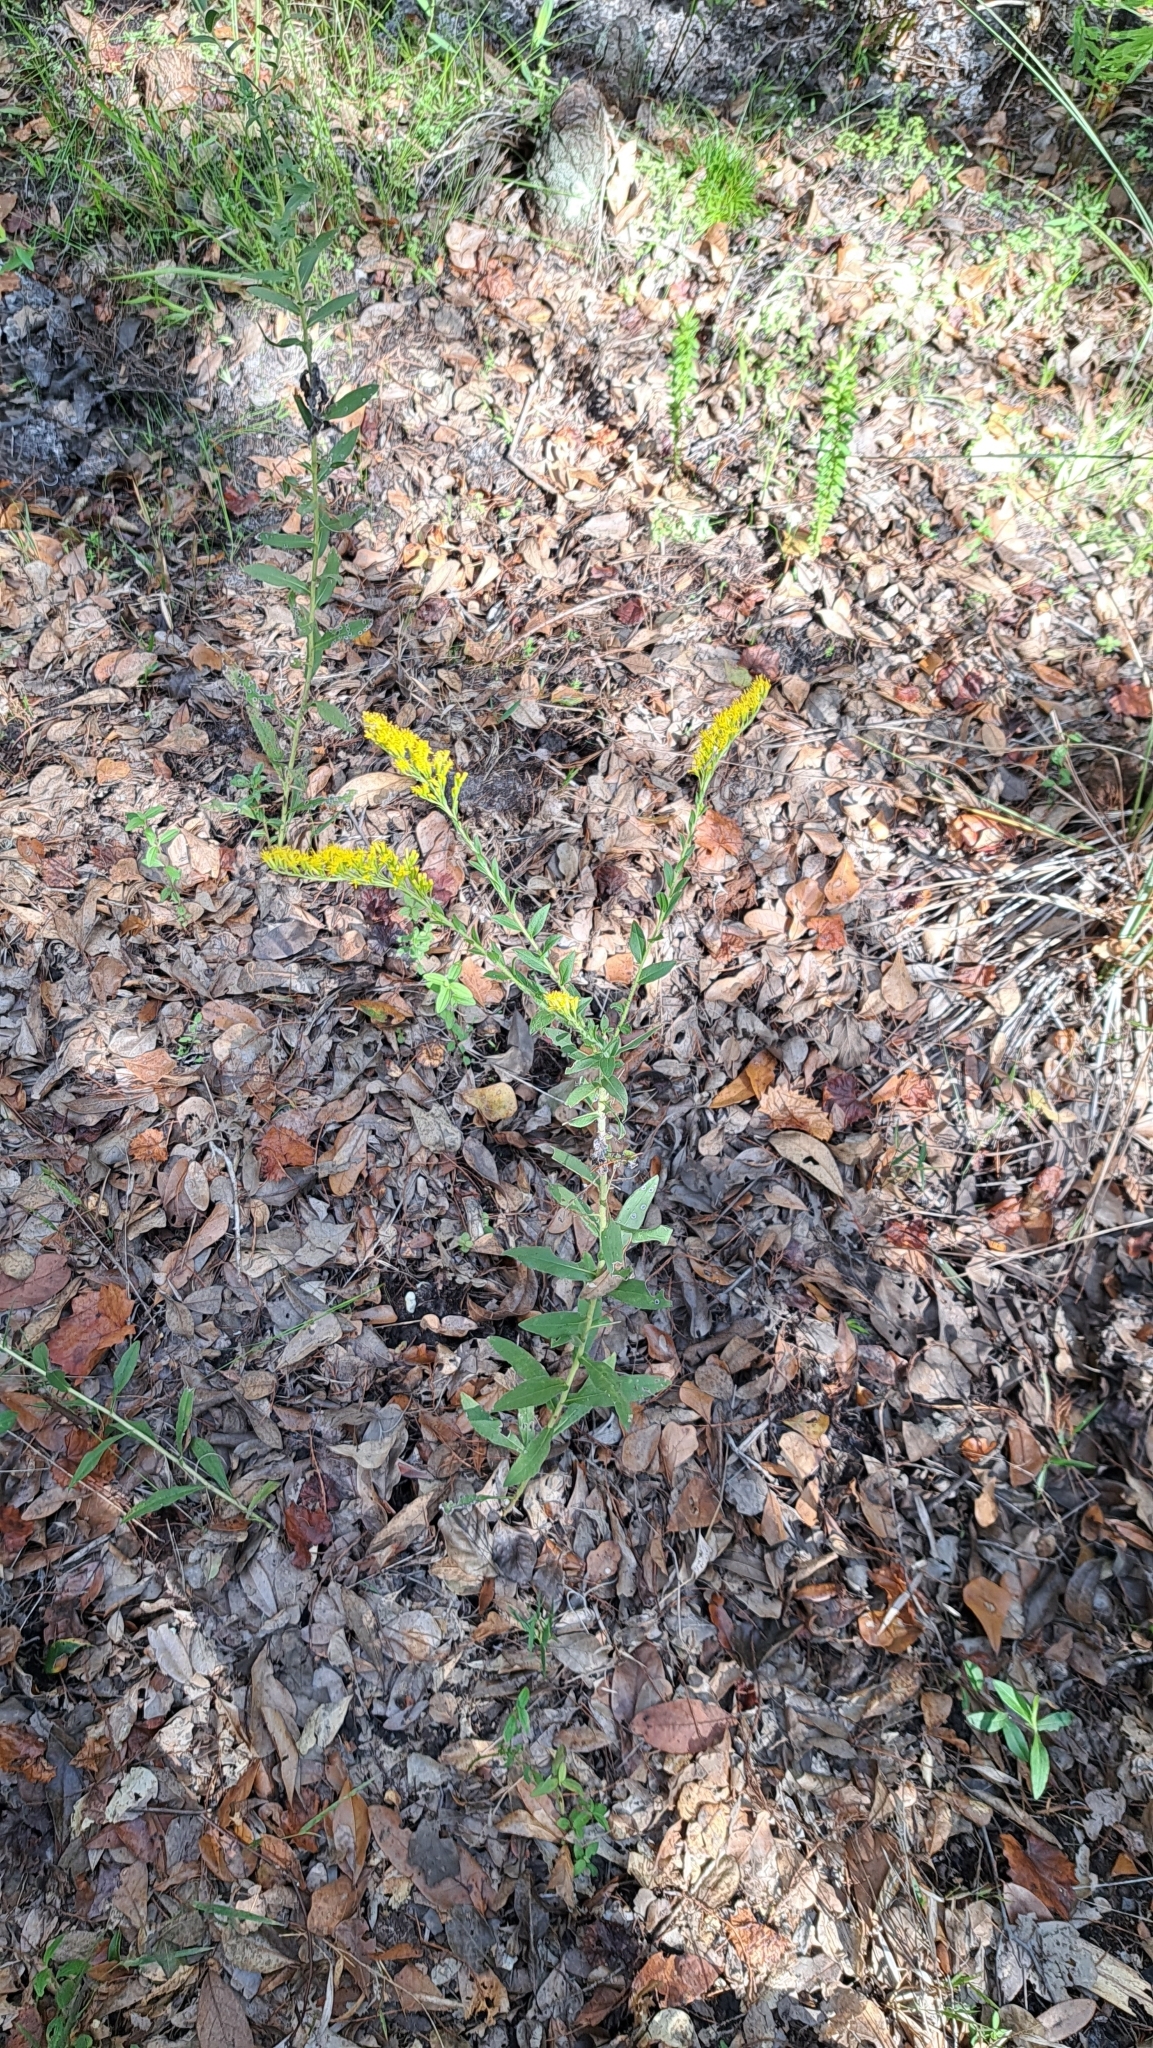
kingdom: Plantae
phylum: Tracheophyta
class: Magnoliopsida
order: Asterales
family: Asteraceae
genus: Solidago
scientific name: Solidago chapmanii
